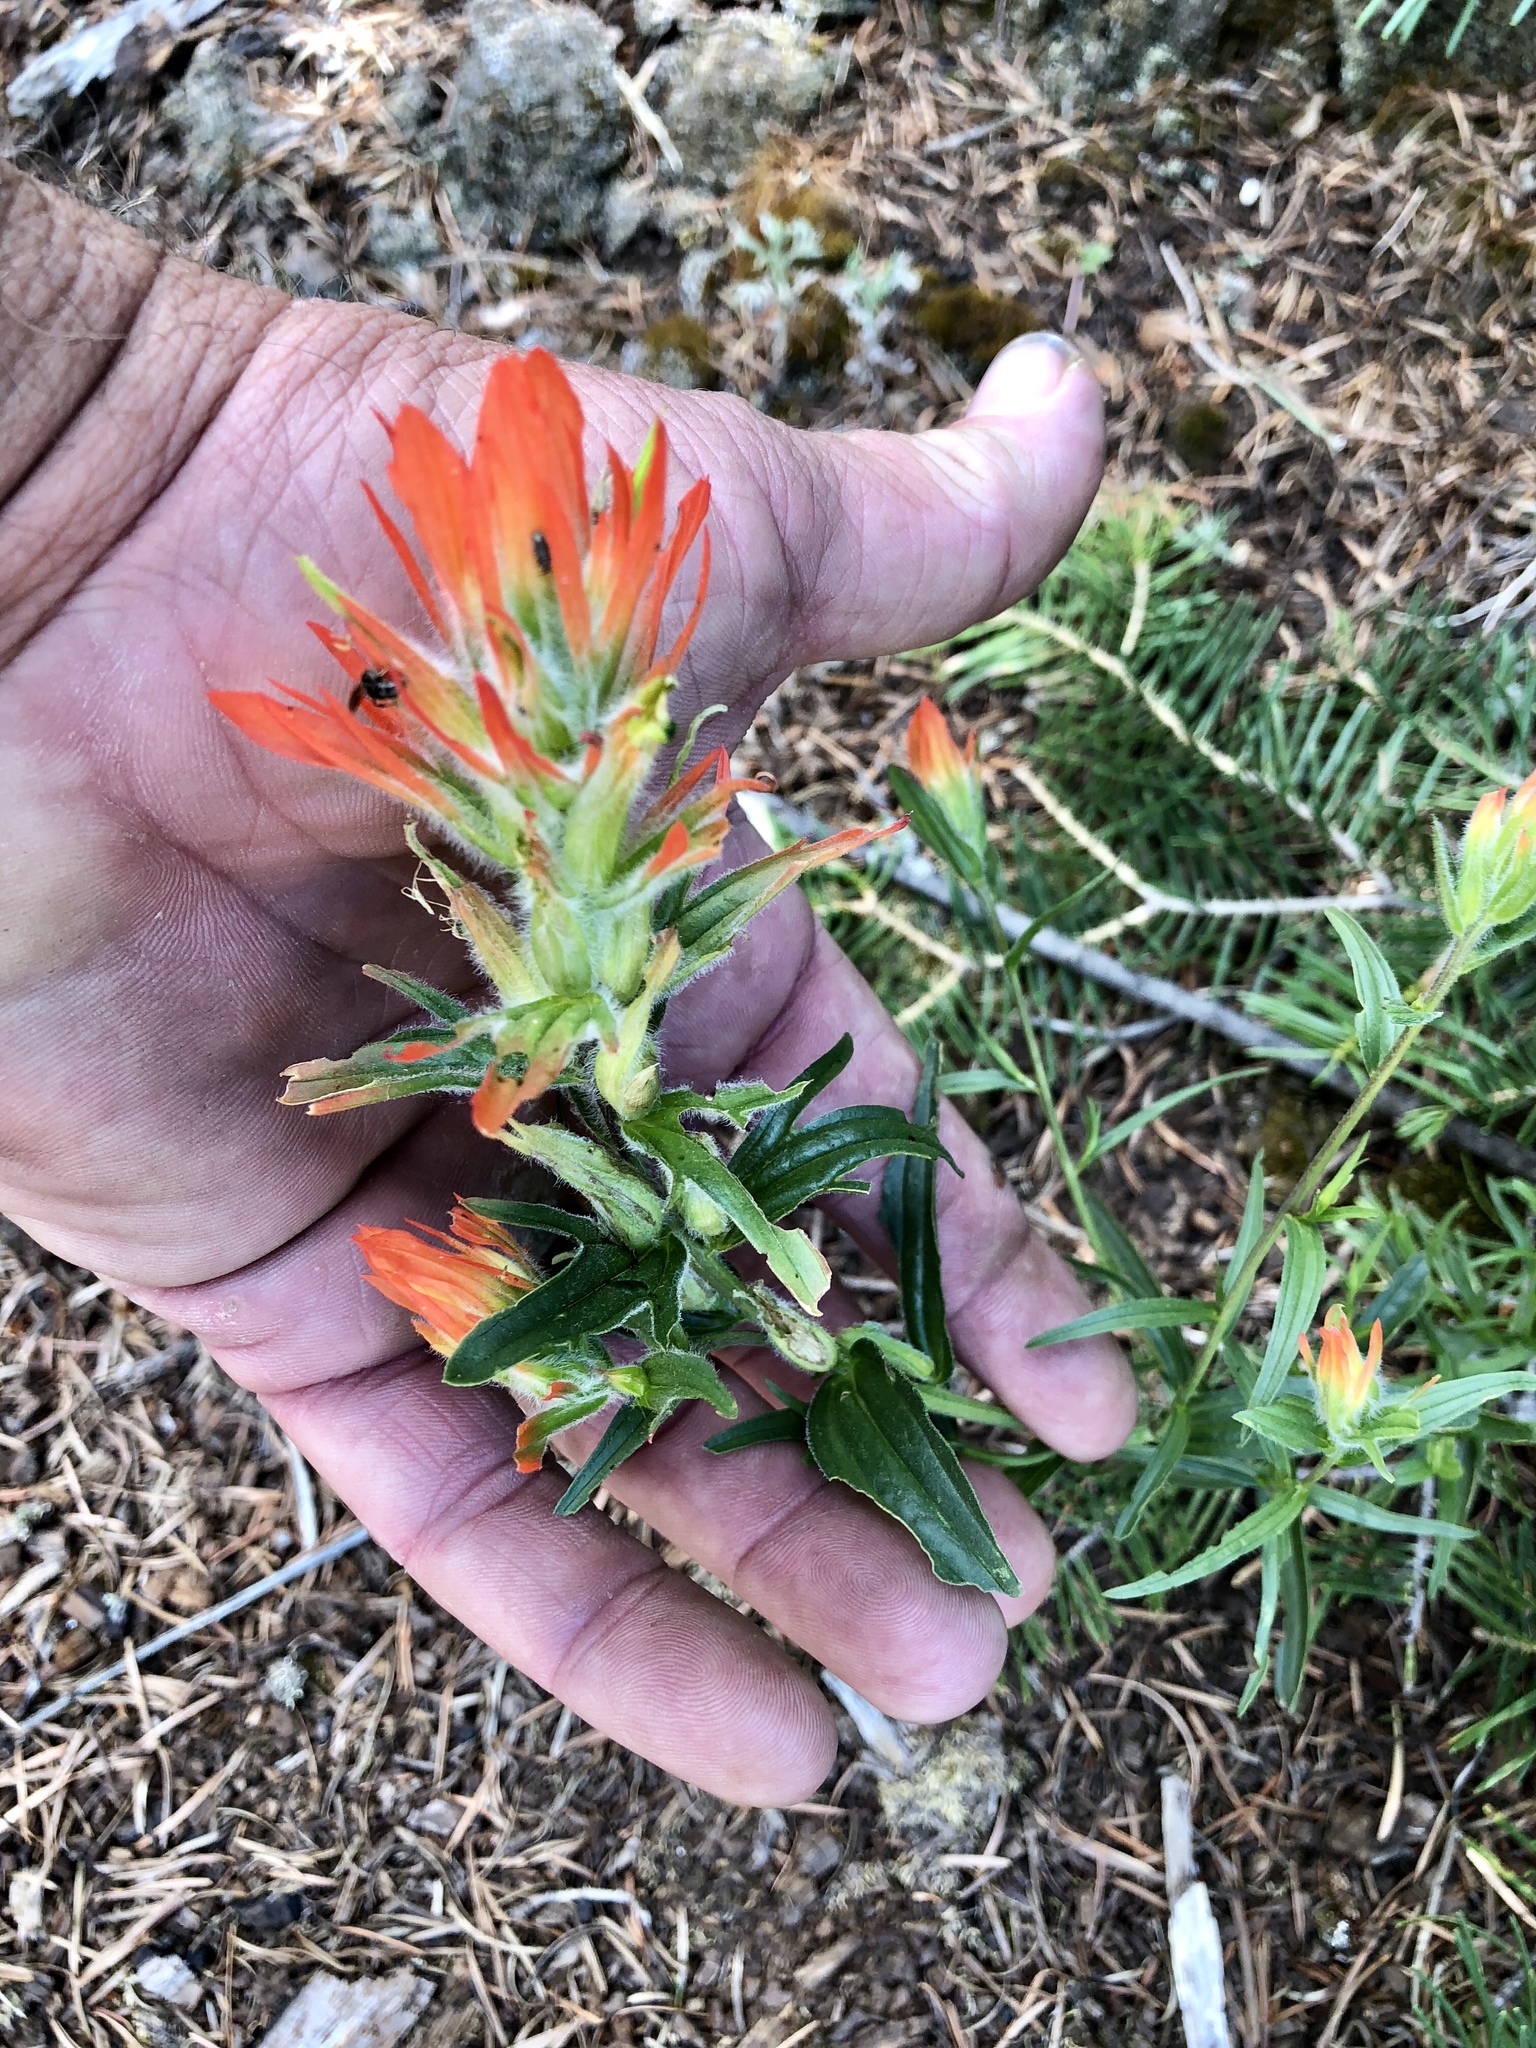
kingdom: Plantae
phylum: Tracheophyta
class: Magnoliopsida
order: Lamiales
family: Orobanchaceae
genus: Castilleja
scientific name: Castilleja wootonii
